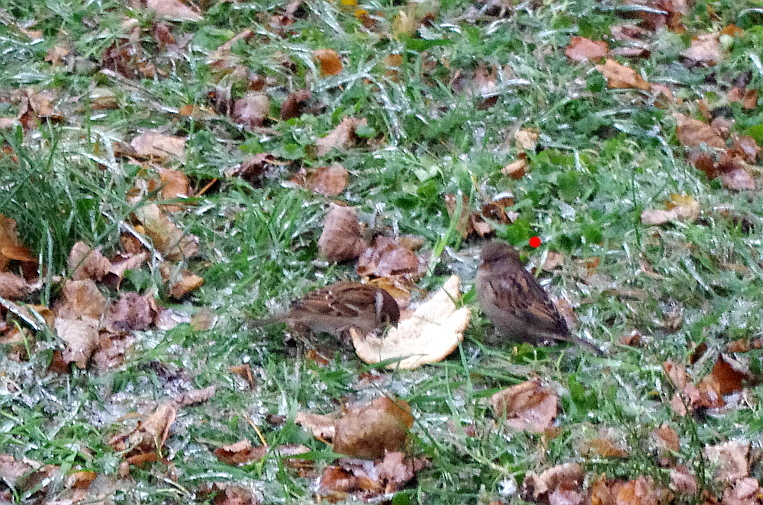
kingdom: Animalia
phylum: Chordata
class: Aves
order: Passeriformes
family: Passeridae
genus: Passer
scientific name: Passer domesticus
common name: House sparrow
